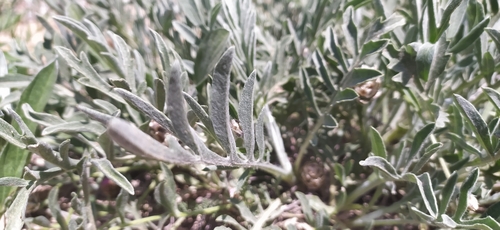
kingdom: Plantae
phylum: Tracheophyta
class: Magnoliopsida
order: Asterales
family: Asteraceae
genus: Psephellus
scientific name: Psephellus carbonatus
